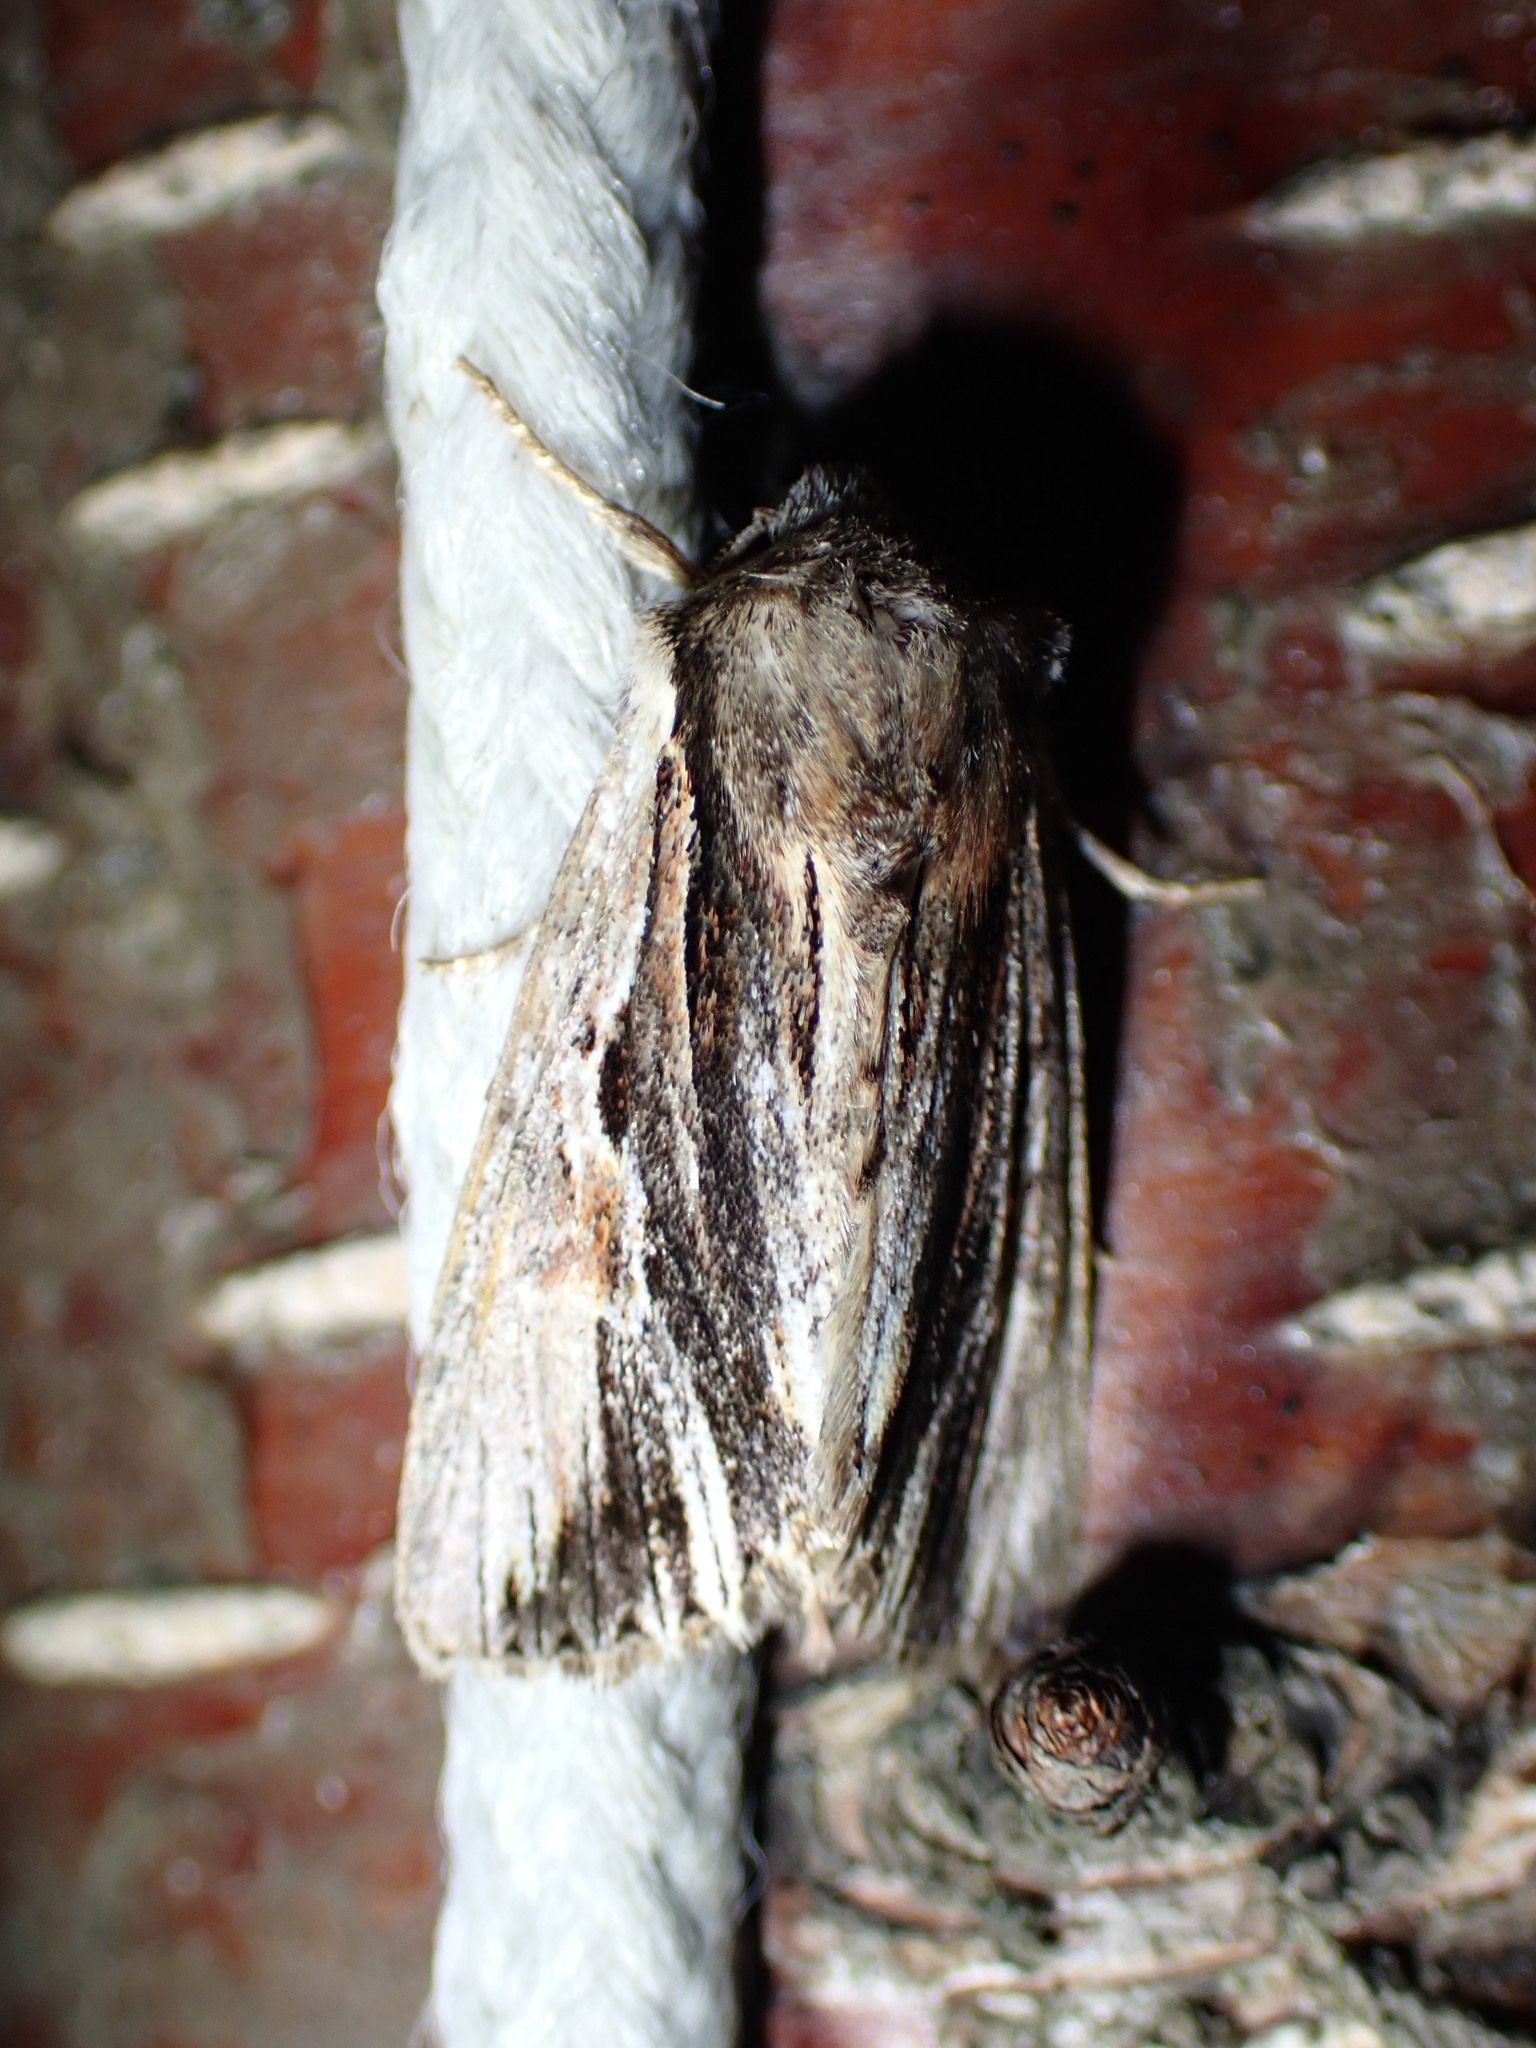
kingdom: Animalia
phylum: Arthropoda
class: Insecta
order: Lepidoptera
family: Noctuidae
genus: Achatia
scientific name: Achatia evicta
